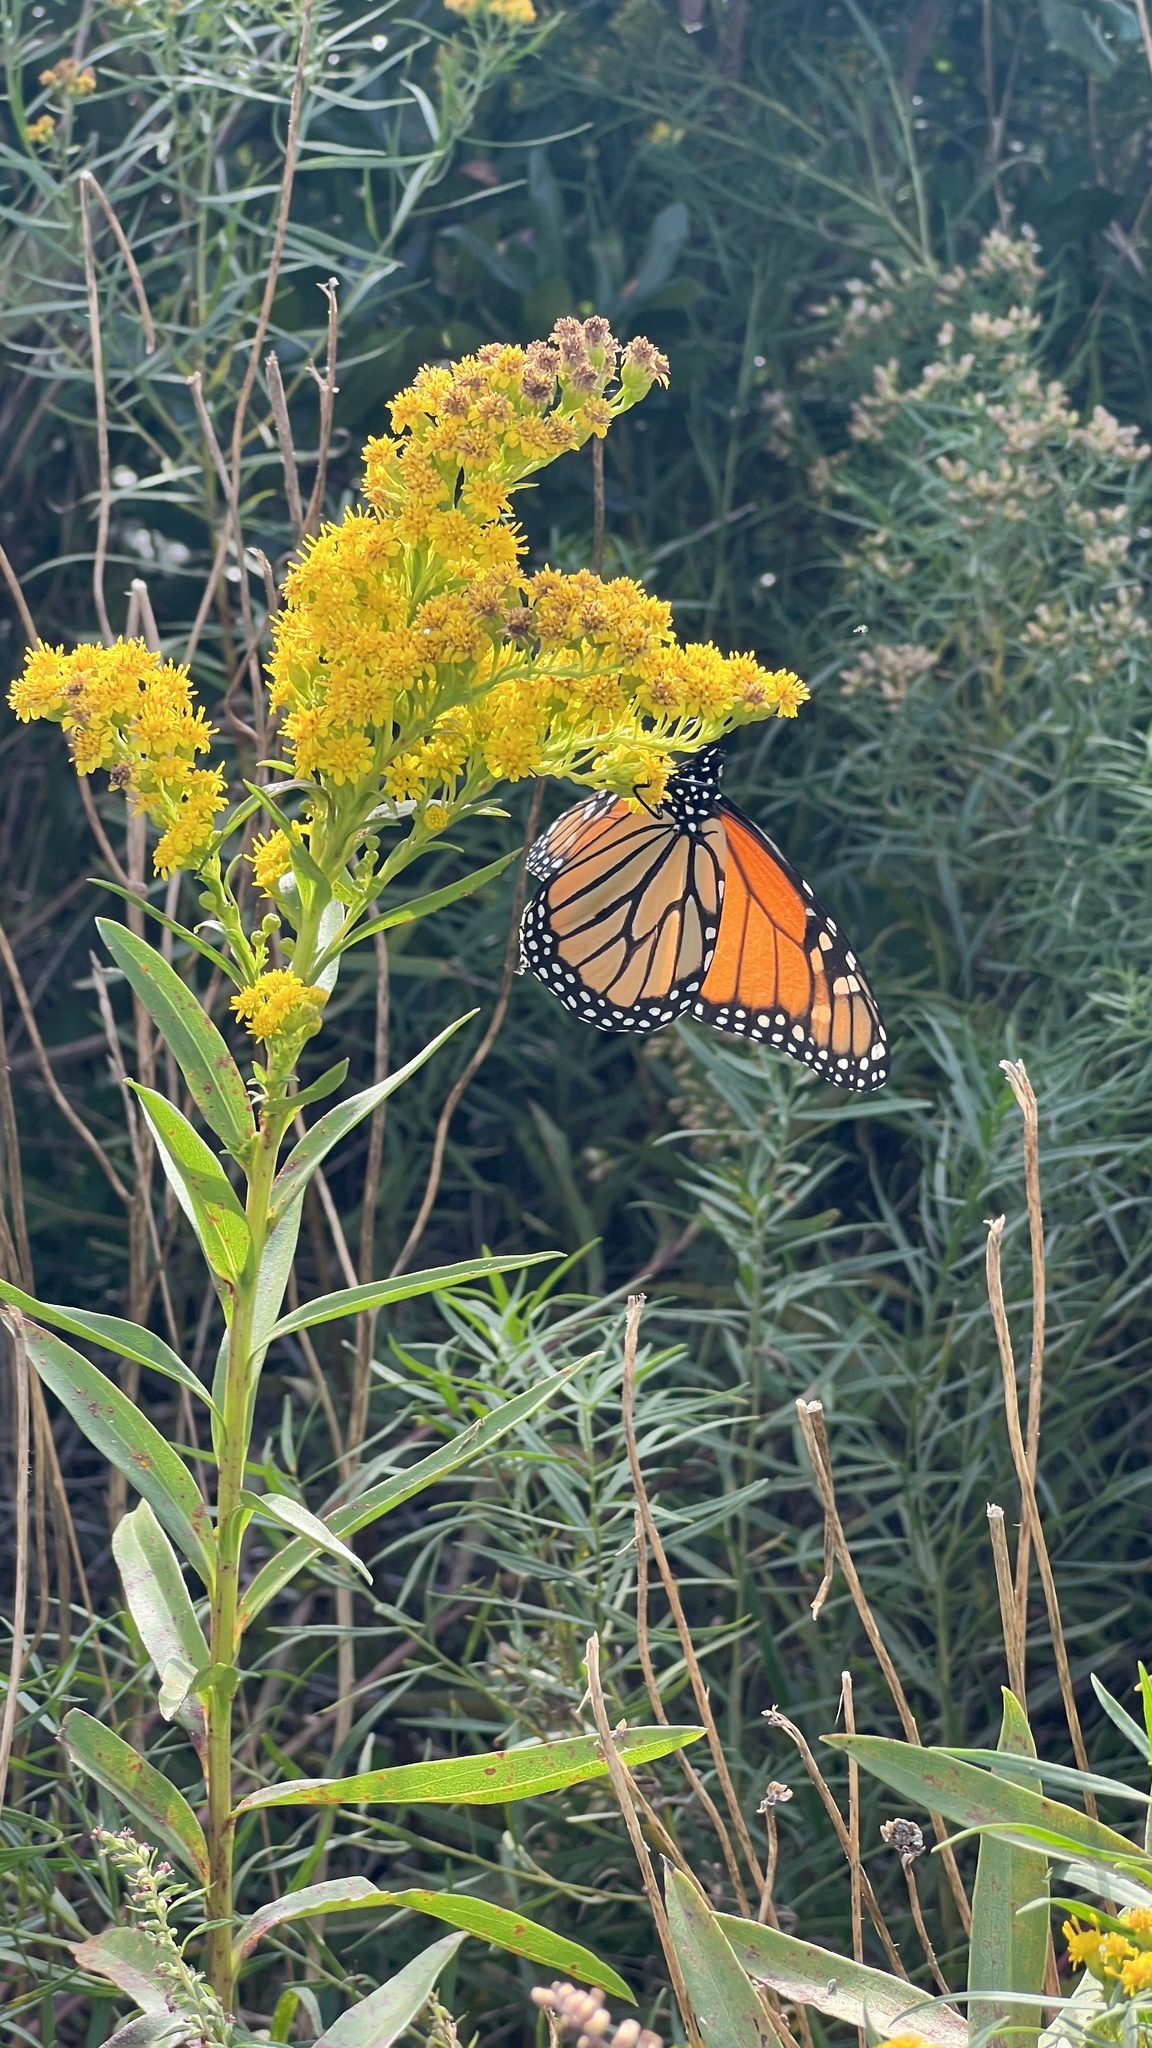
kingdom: Plantae
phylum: Tracheophyta
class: Magnoliopsida
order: Asterales
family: Asteraceae
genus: Solidago
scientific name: Solidago sempervirens
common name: Salt-marsh goldenrod
